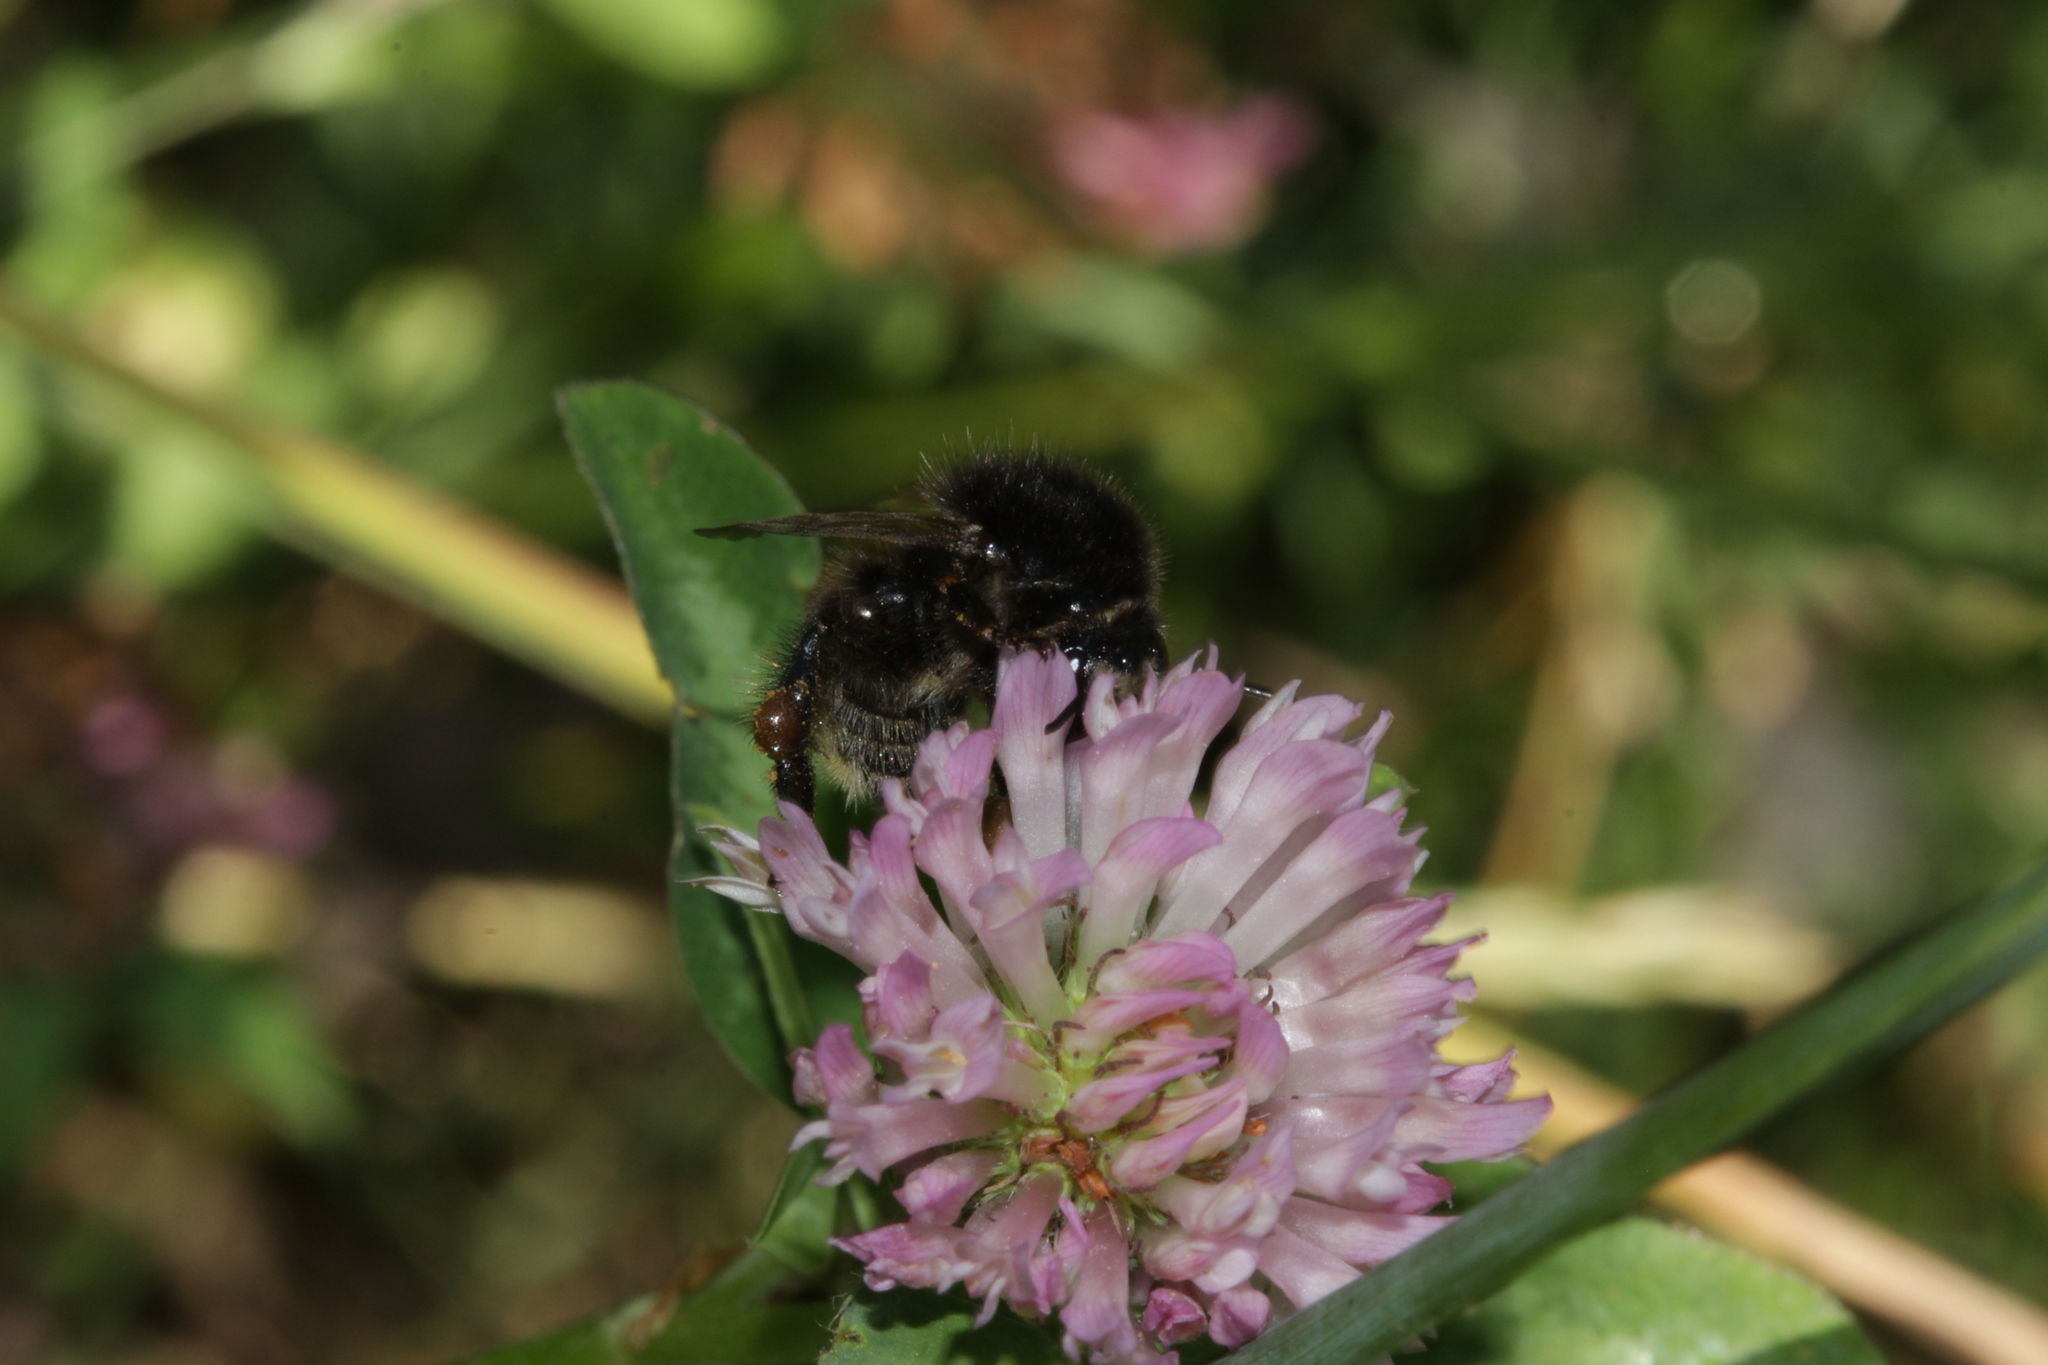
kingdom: Animalia
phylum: Arthropoda
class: Insecta
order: Hymenoptera
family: Apidae
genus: Bombus
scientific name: Bombus humilis
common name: Brown-banded carder-bee
